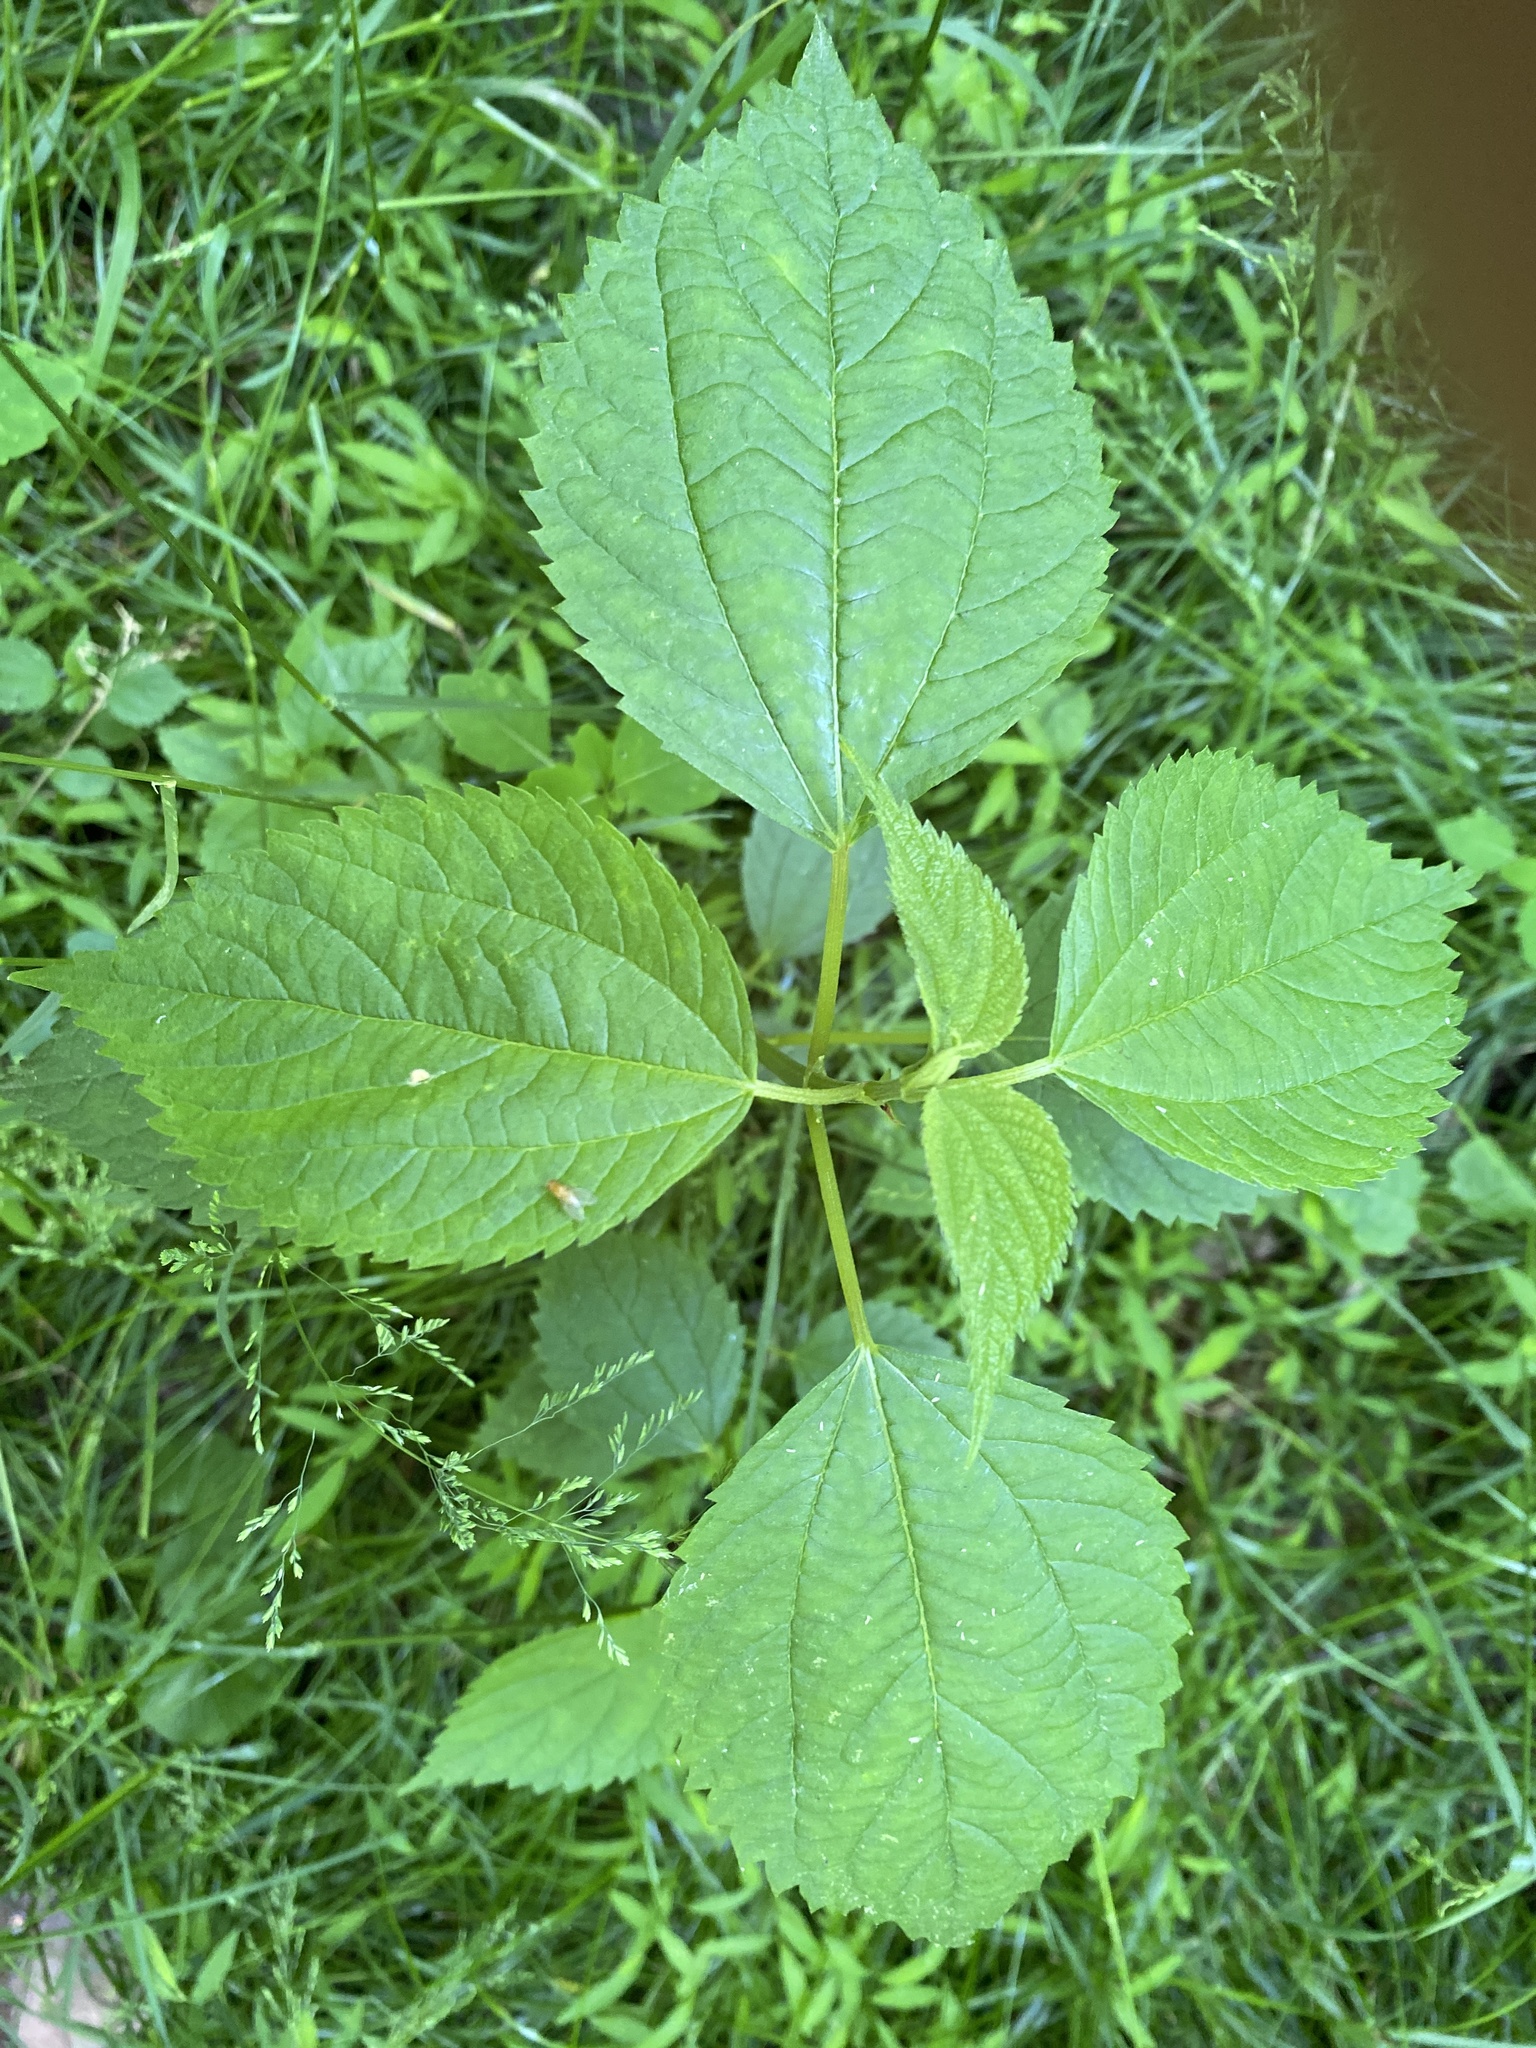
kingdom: Plantae
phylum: Tracheophyta
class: Magnoliopsida
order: Rosales
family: Urticaceae
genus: Boehmeria
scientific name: Boehmeria cylindrica
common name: Bog-hemp
